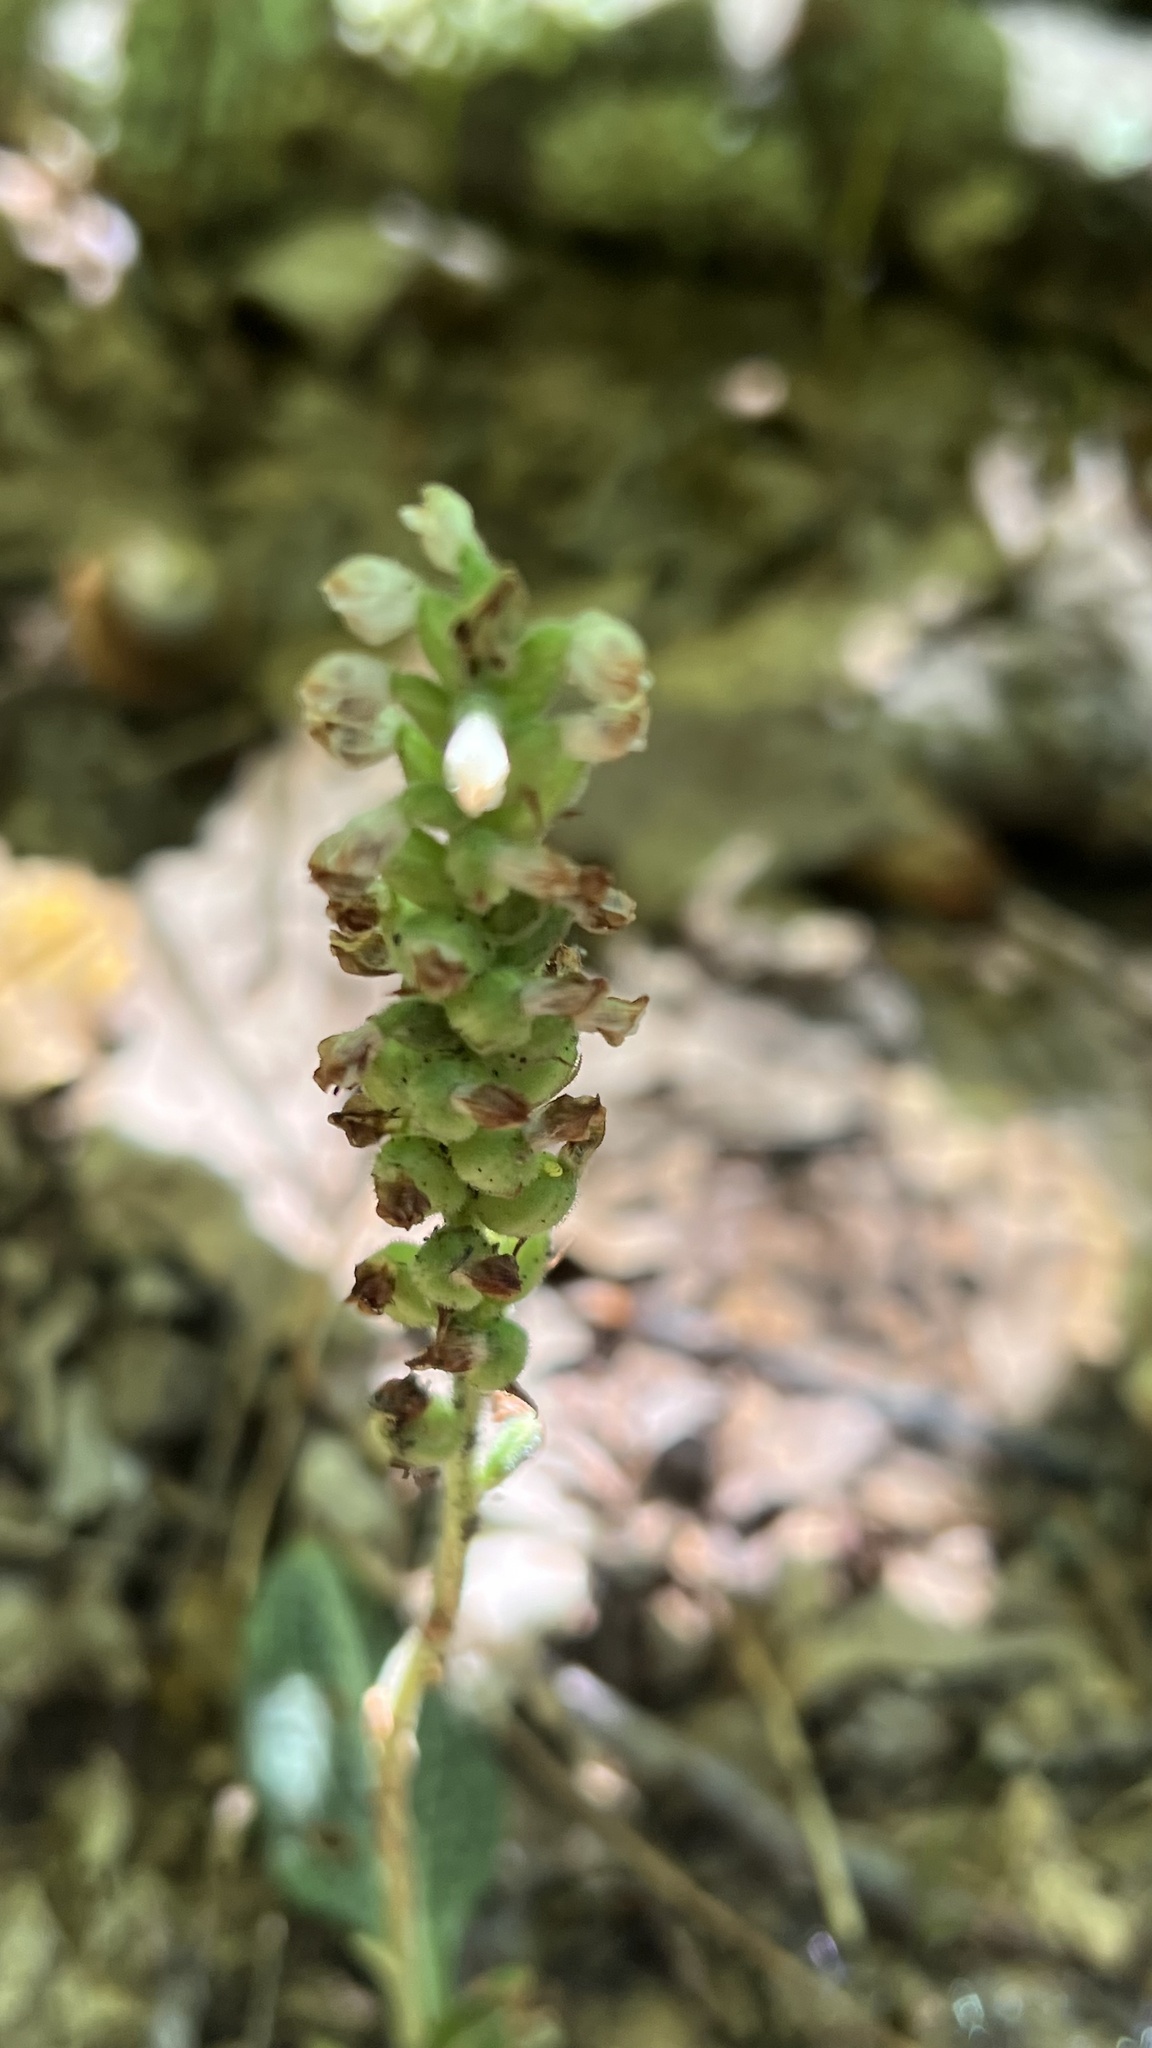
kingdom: Plantae
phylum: Tracheophyta
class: Liliopsida
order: Asparagales
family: Orchidaceae
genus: Goodyera
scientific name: Goodyera pubescens
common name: Downy rattlesnake-plantain
